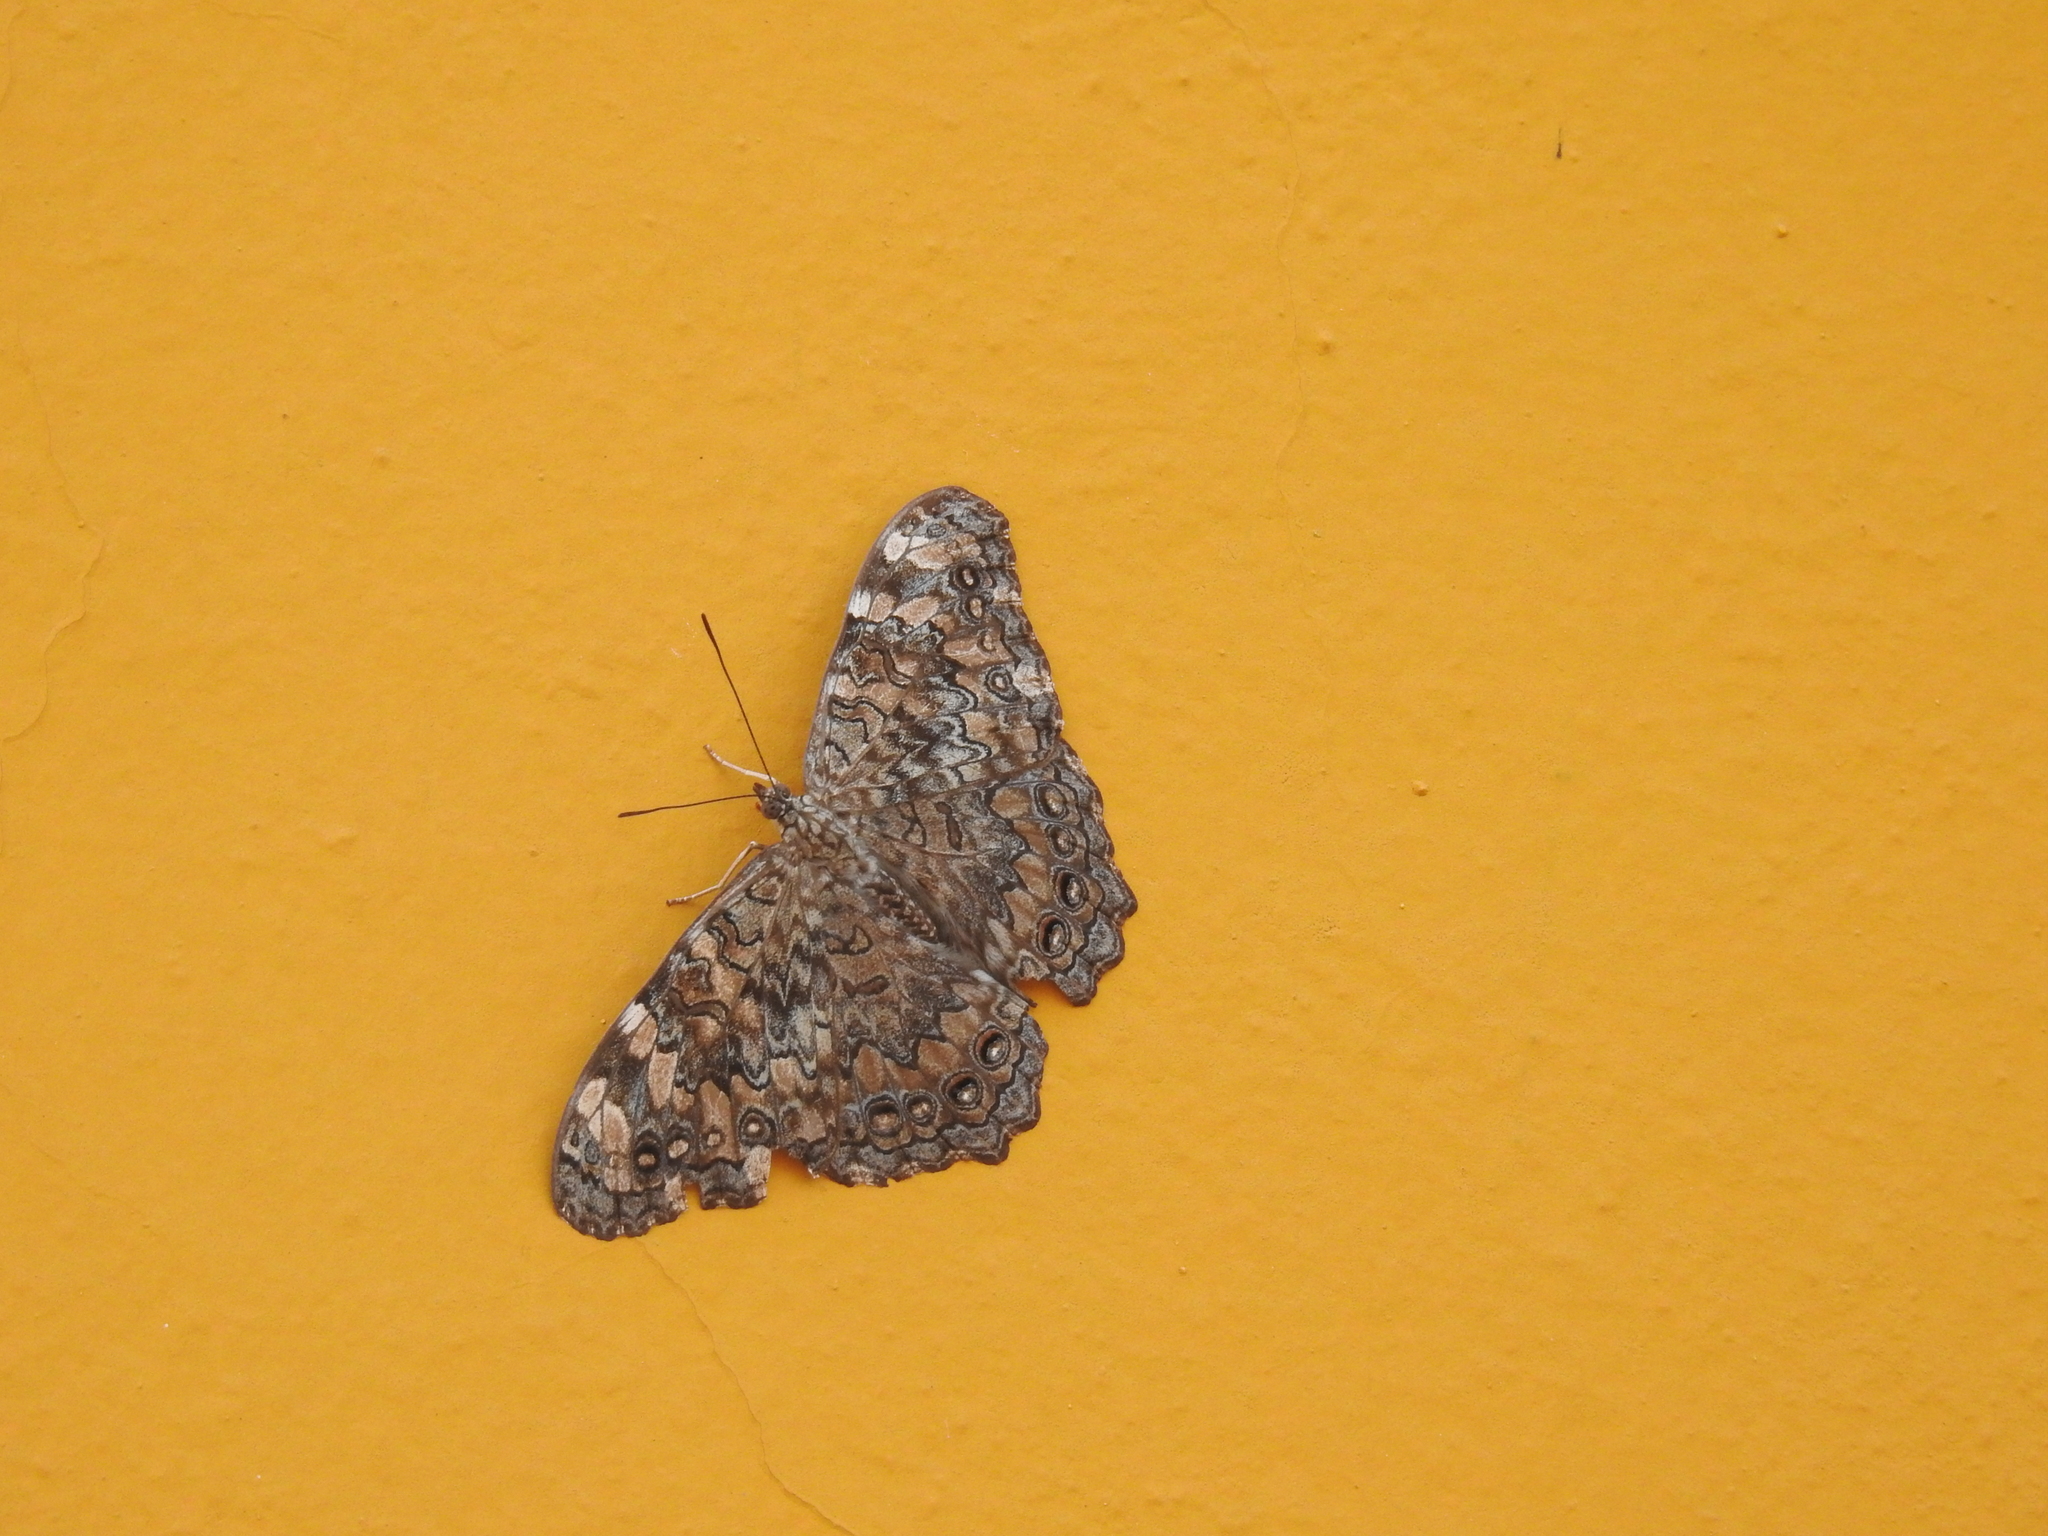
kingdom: Animalia
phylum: Arthropoda
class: Insecta
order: Lepidoptera
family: Nymphalidae
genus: Hamadryas
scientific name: Hamadryas glauconome
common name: Glaucous cracker
